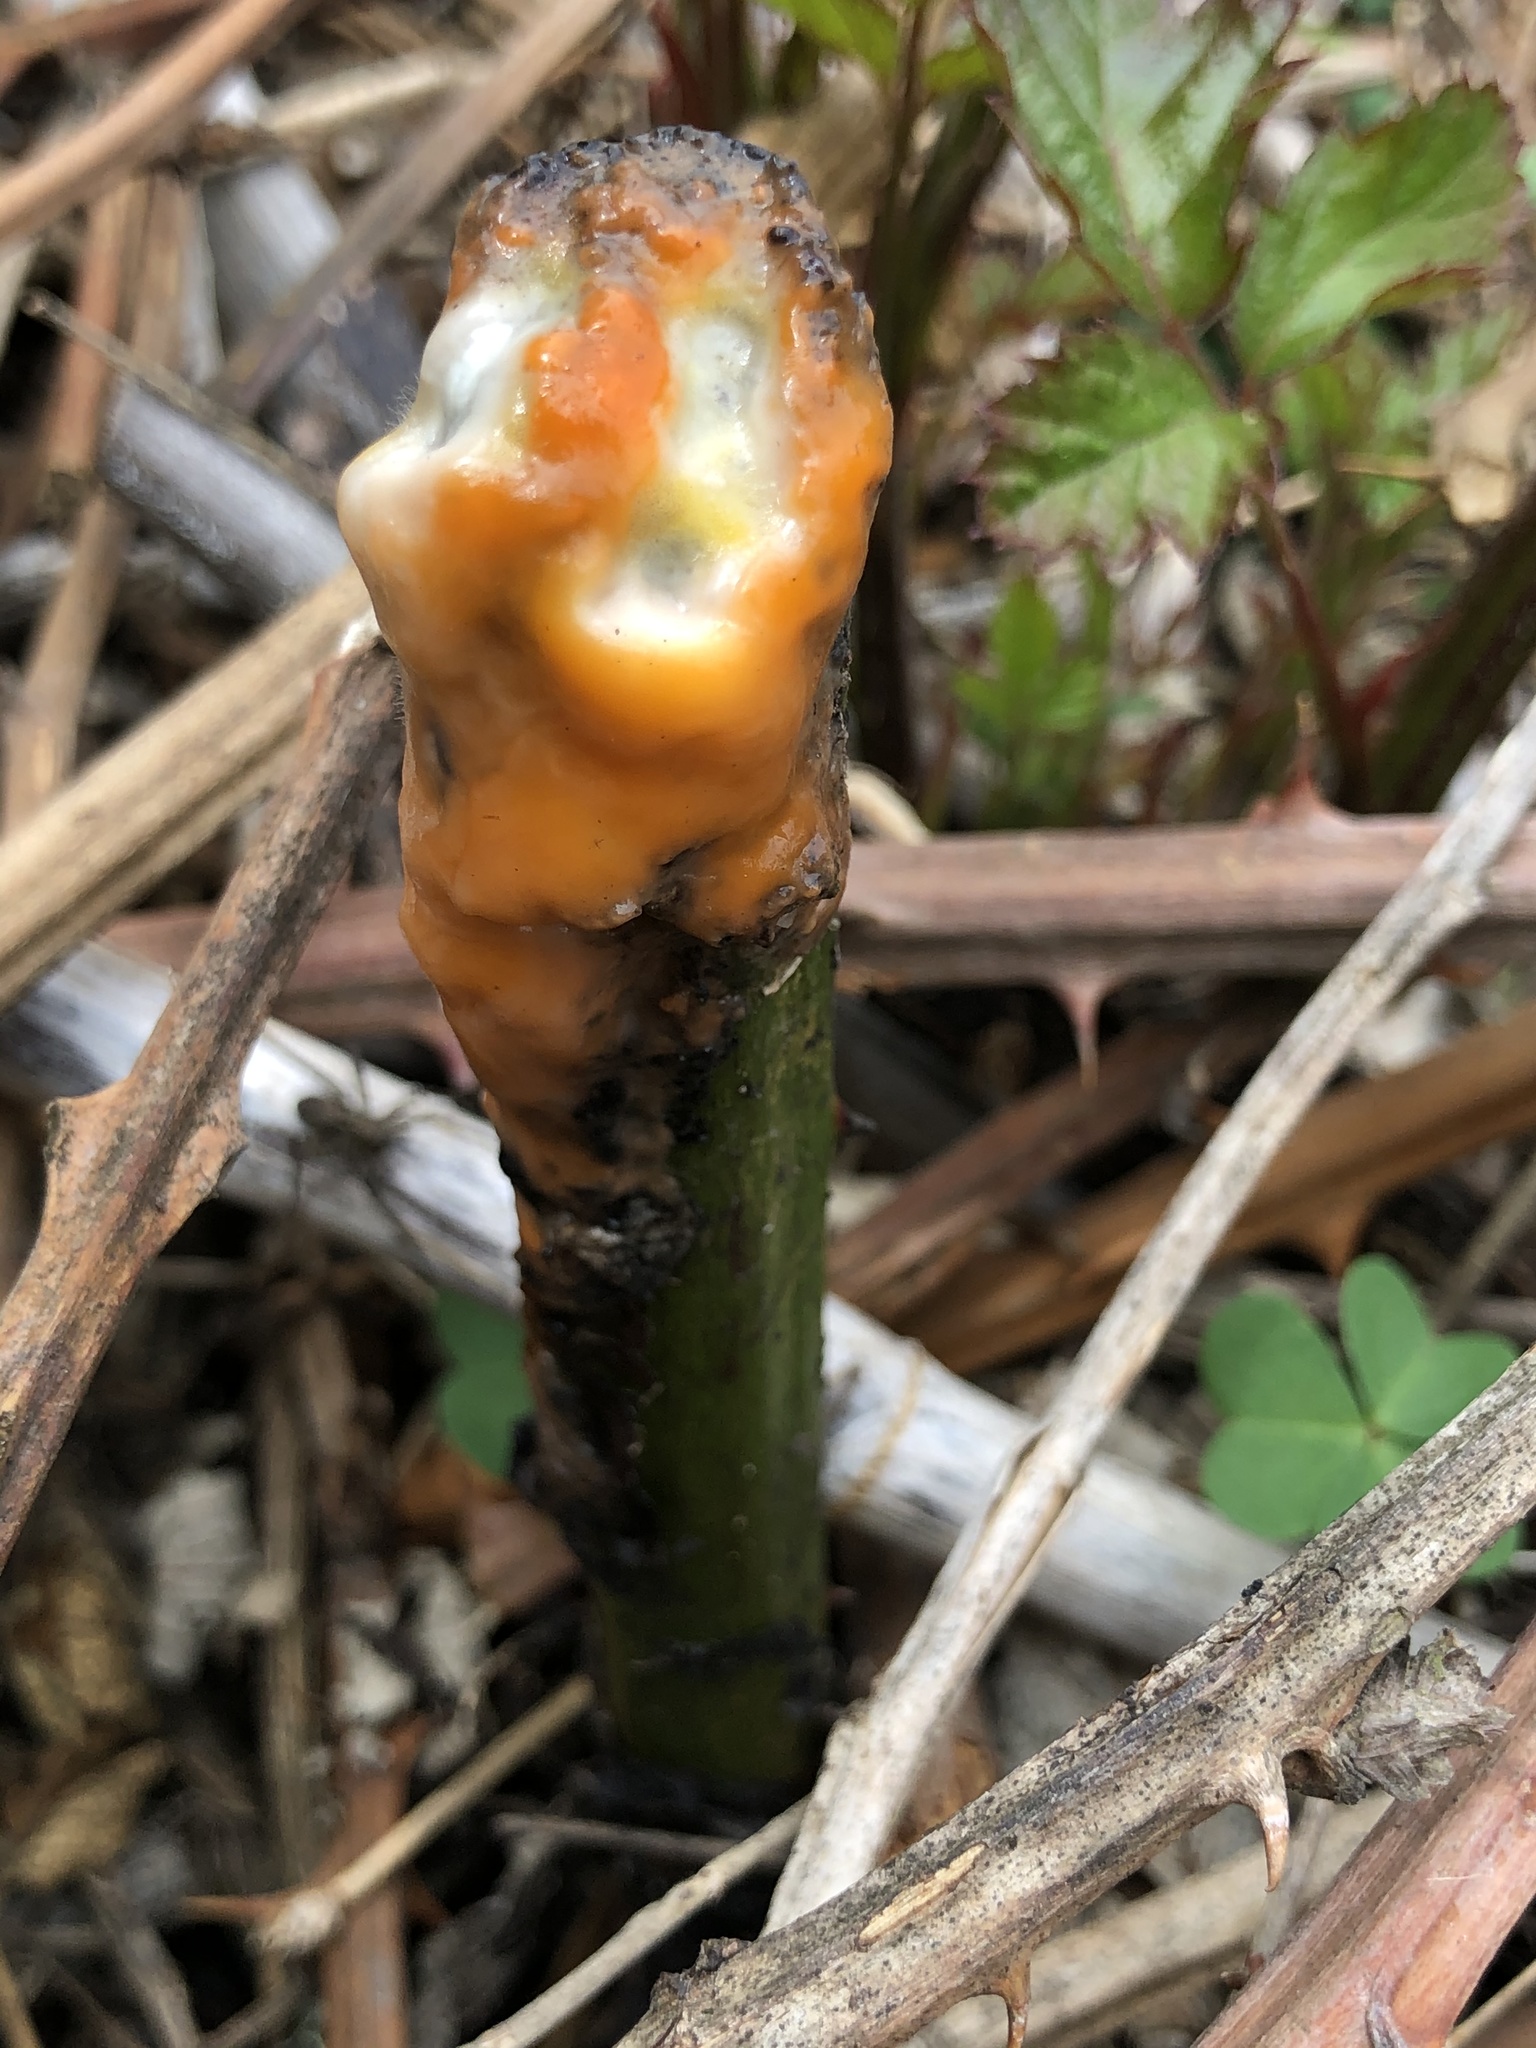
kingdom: Fungi
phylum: Ascomycota
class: Sordariomycetes
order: Hypocreales
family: Nectriaceae
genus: Fusicolla
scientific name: Fusicolla merismoides
